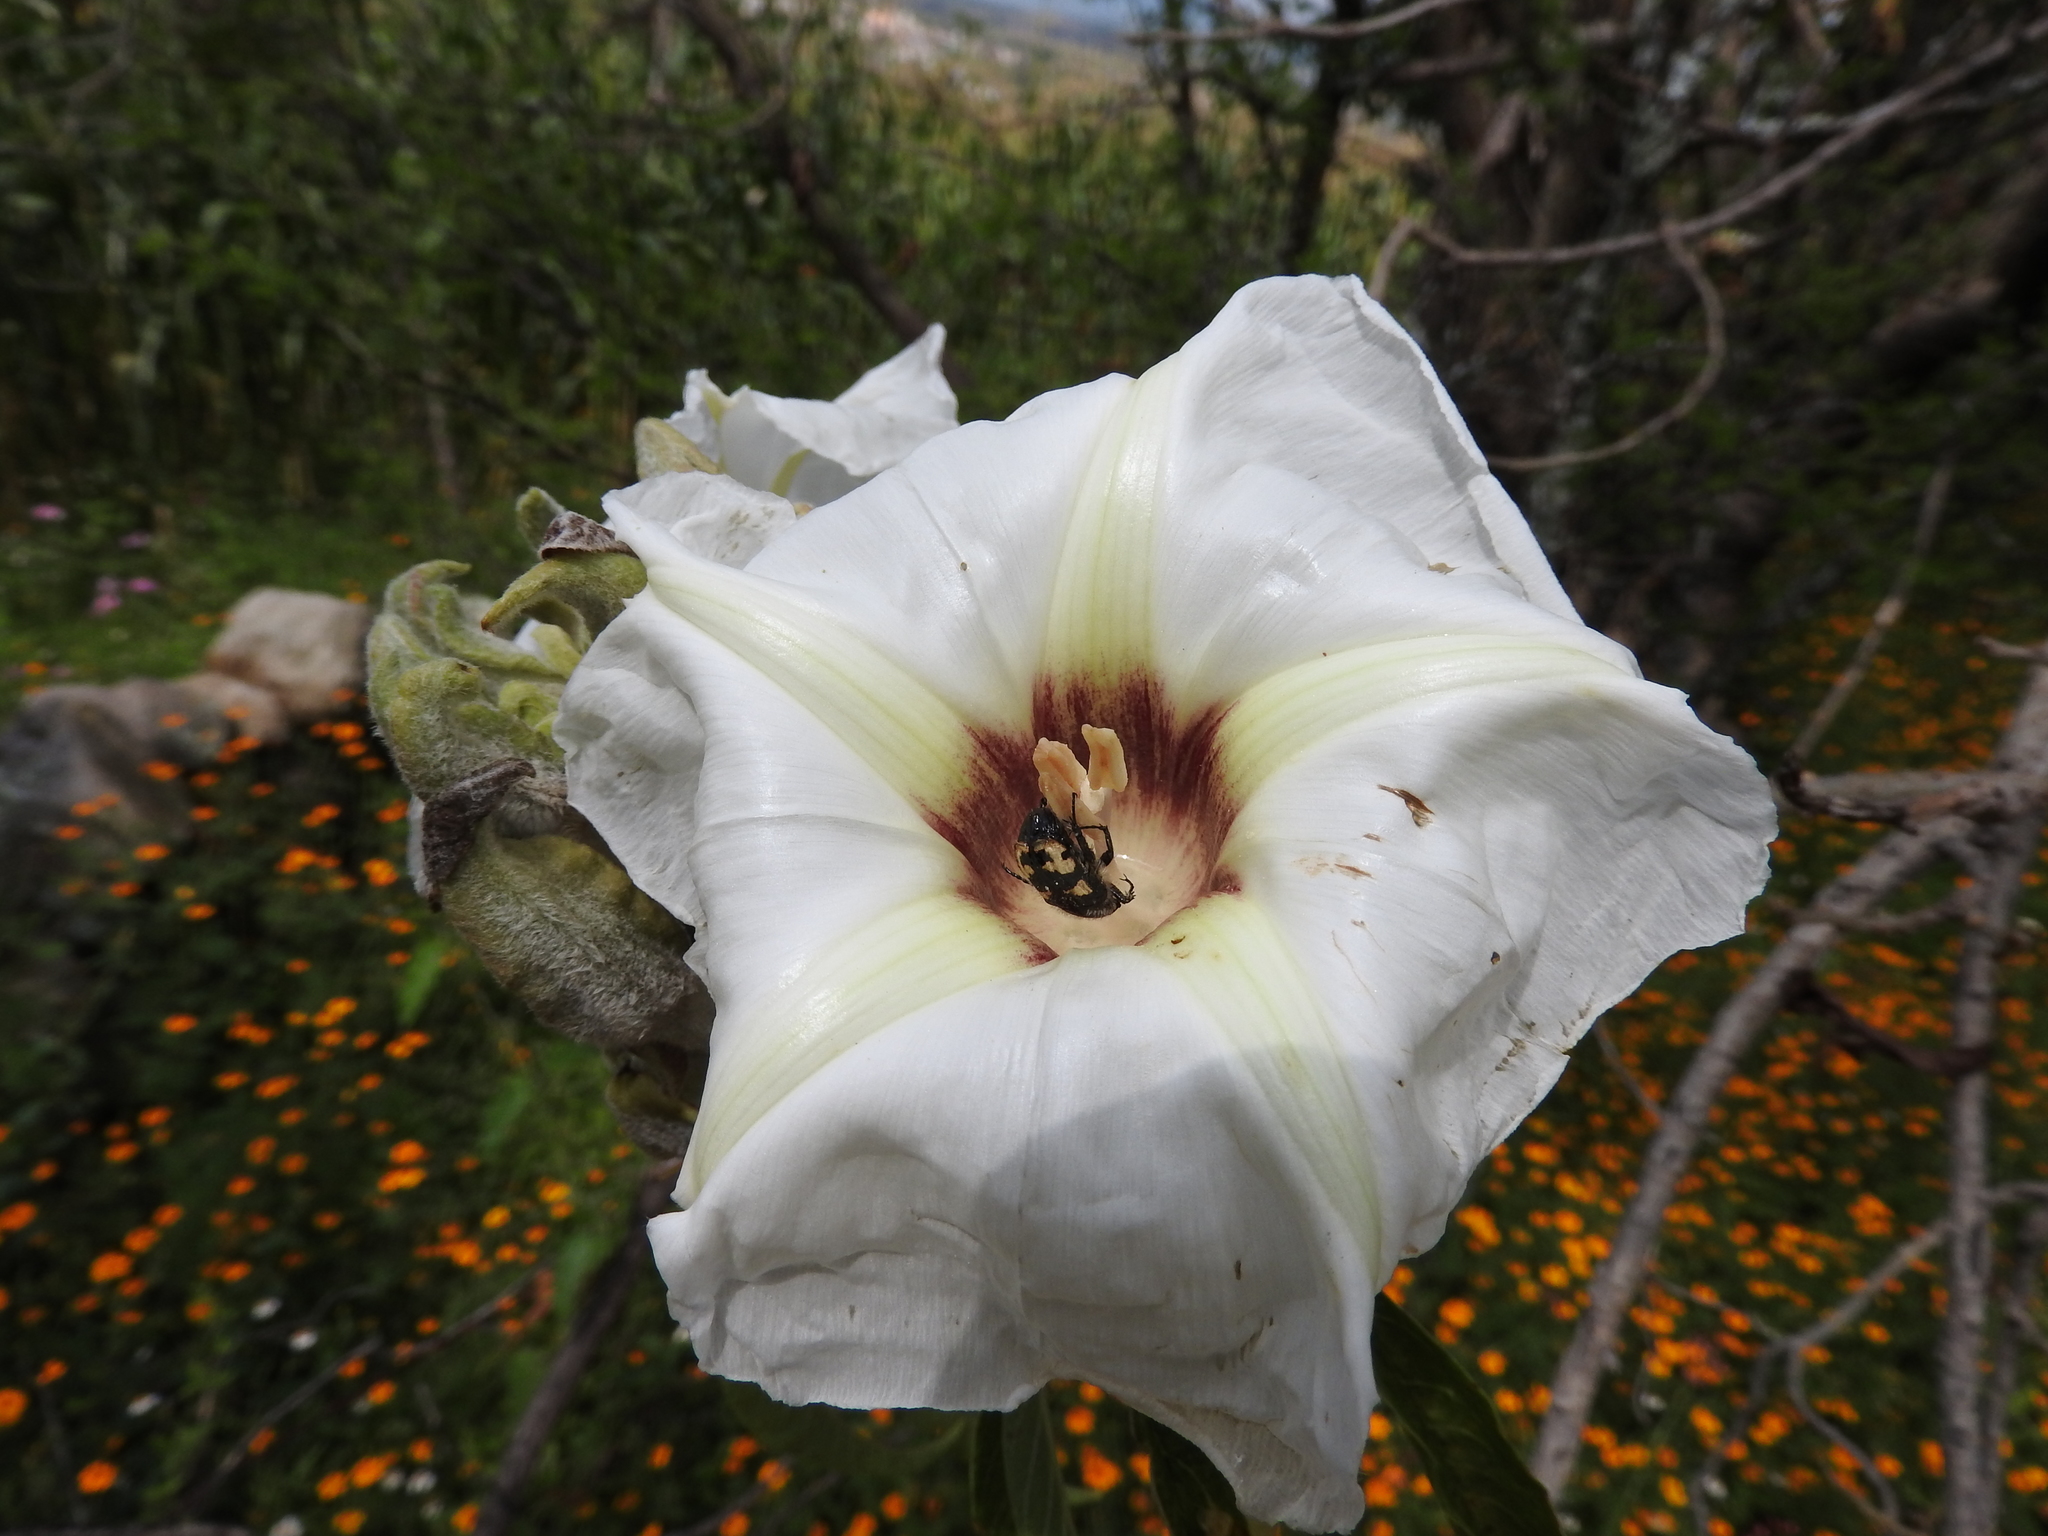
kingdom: Animalia
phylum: Arthropoda
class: Insecta
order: Coleoptera
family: Scarabaeidae
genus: Euphoria
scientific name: Euphoria basalis
